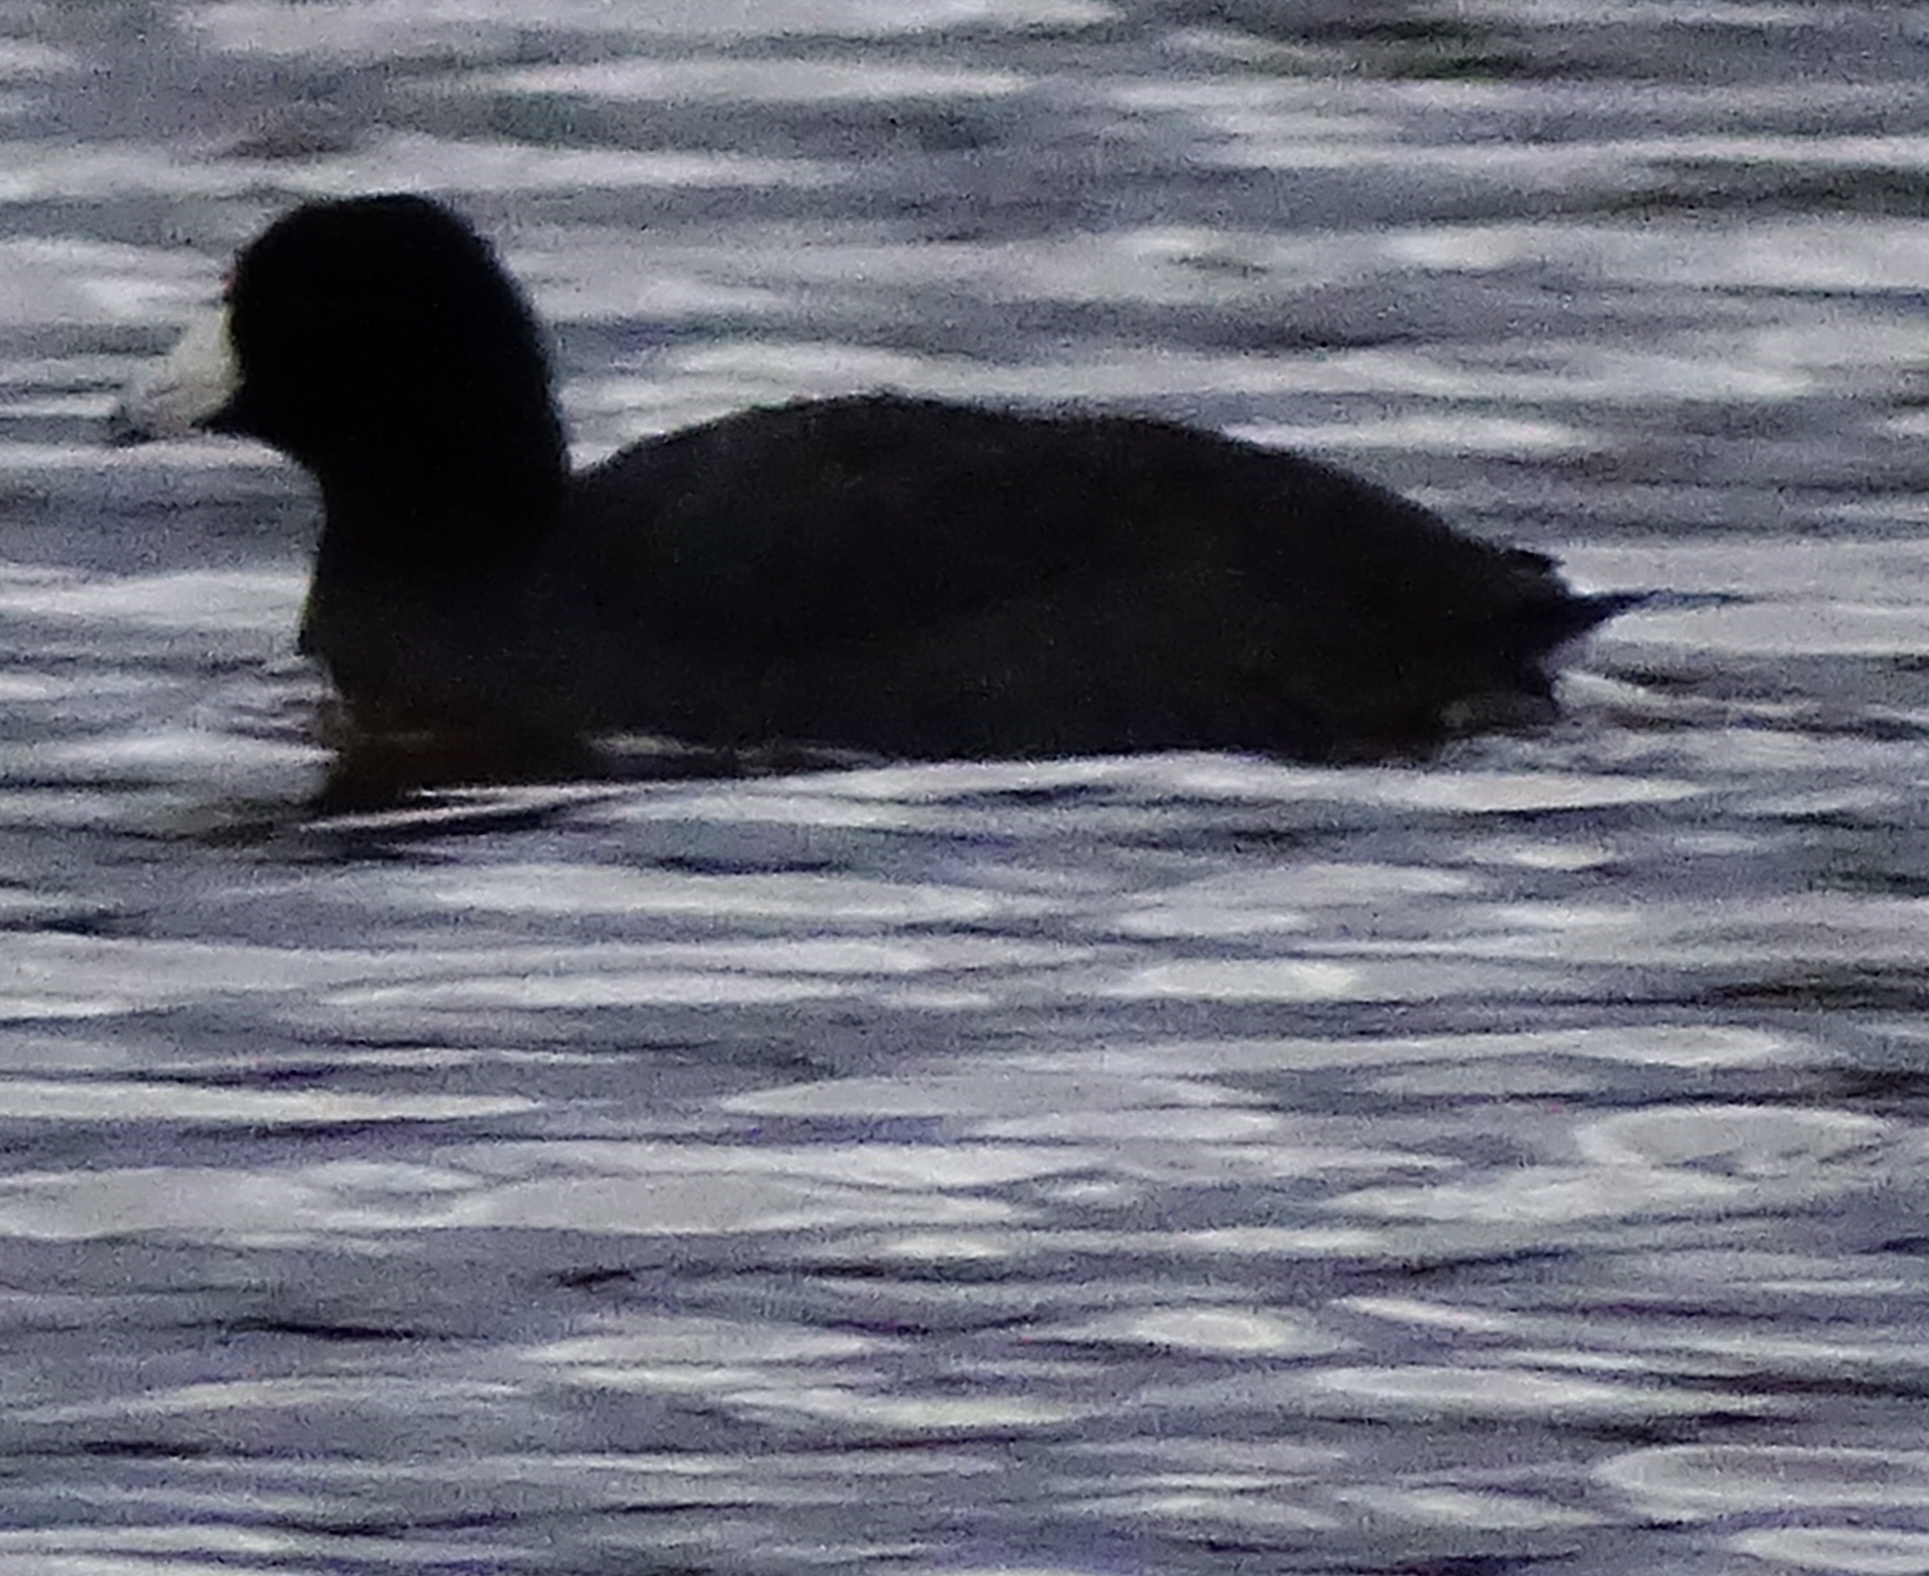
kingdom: Animalia
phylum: Chordata
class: Aves
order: Gruiformes
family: Rallidae
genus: Fulica
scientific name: Fulica americana
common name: American coot
